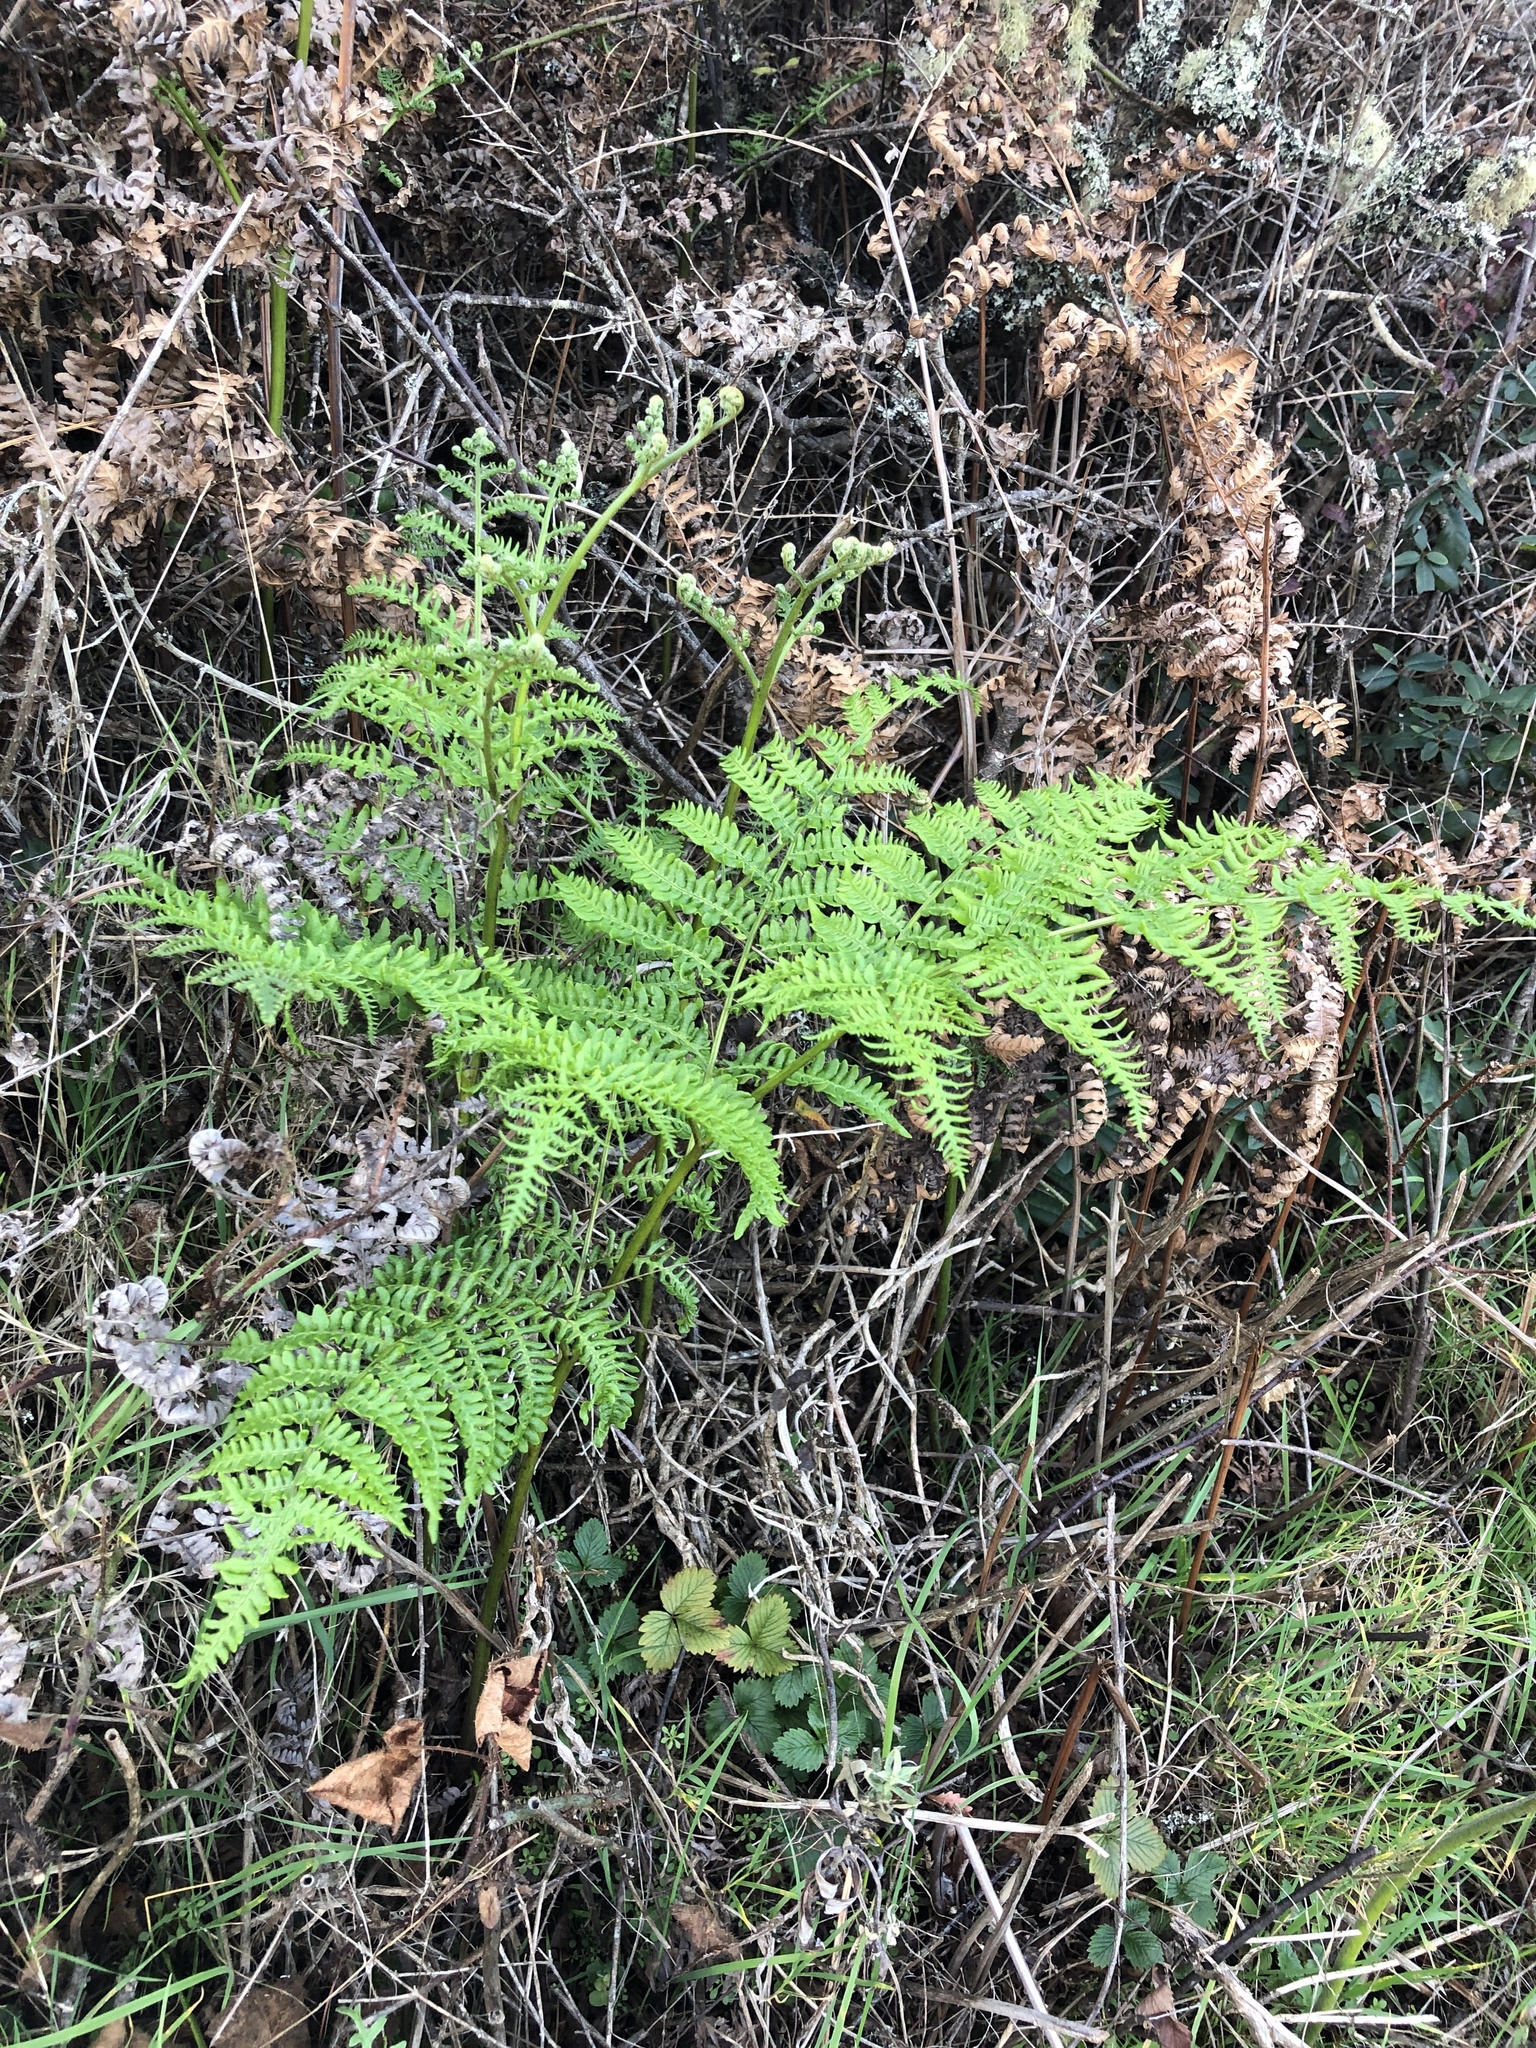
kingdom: Plantae
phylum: Tracheophyta
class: Polypodiopsida
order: Polypodiales
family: Dennstaedtiaceae
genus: Pteridium
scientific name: Pteridium aquilinum
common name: Bracken
